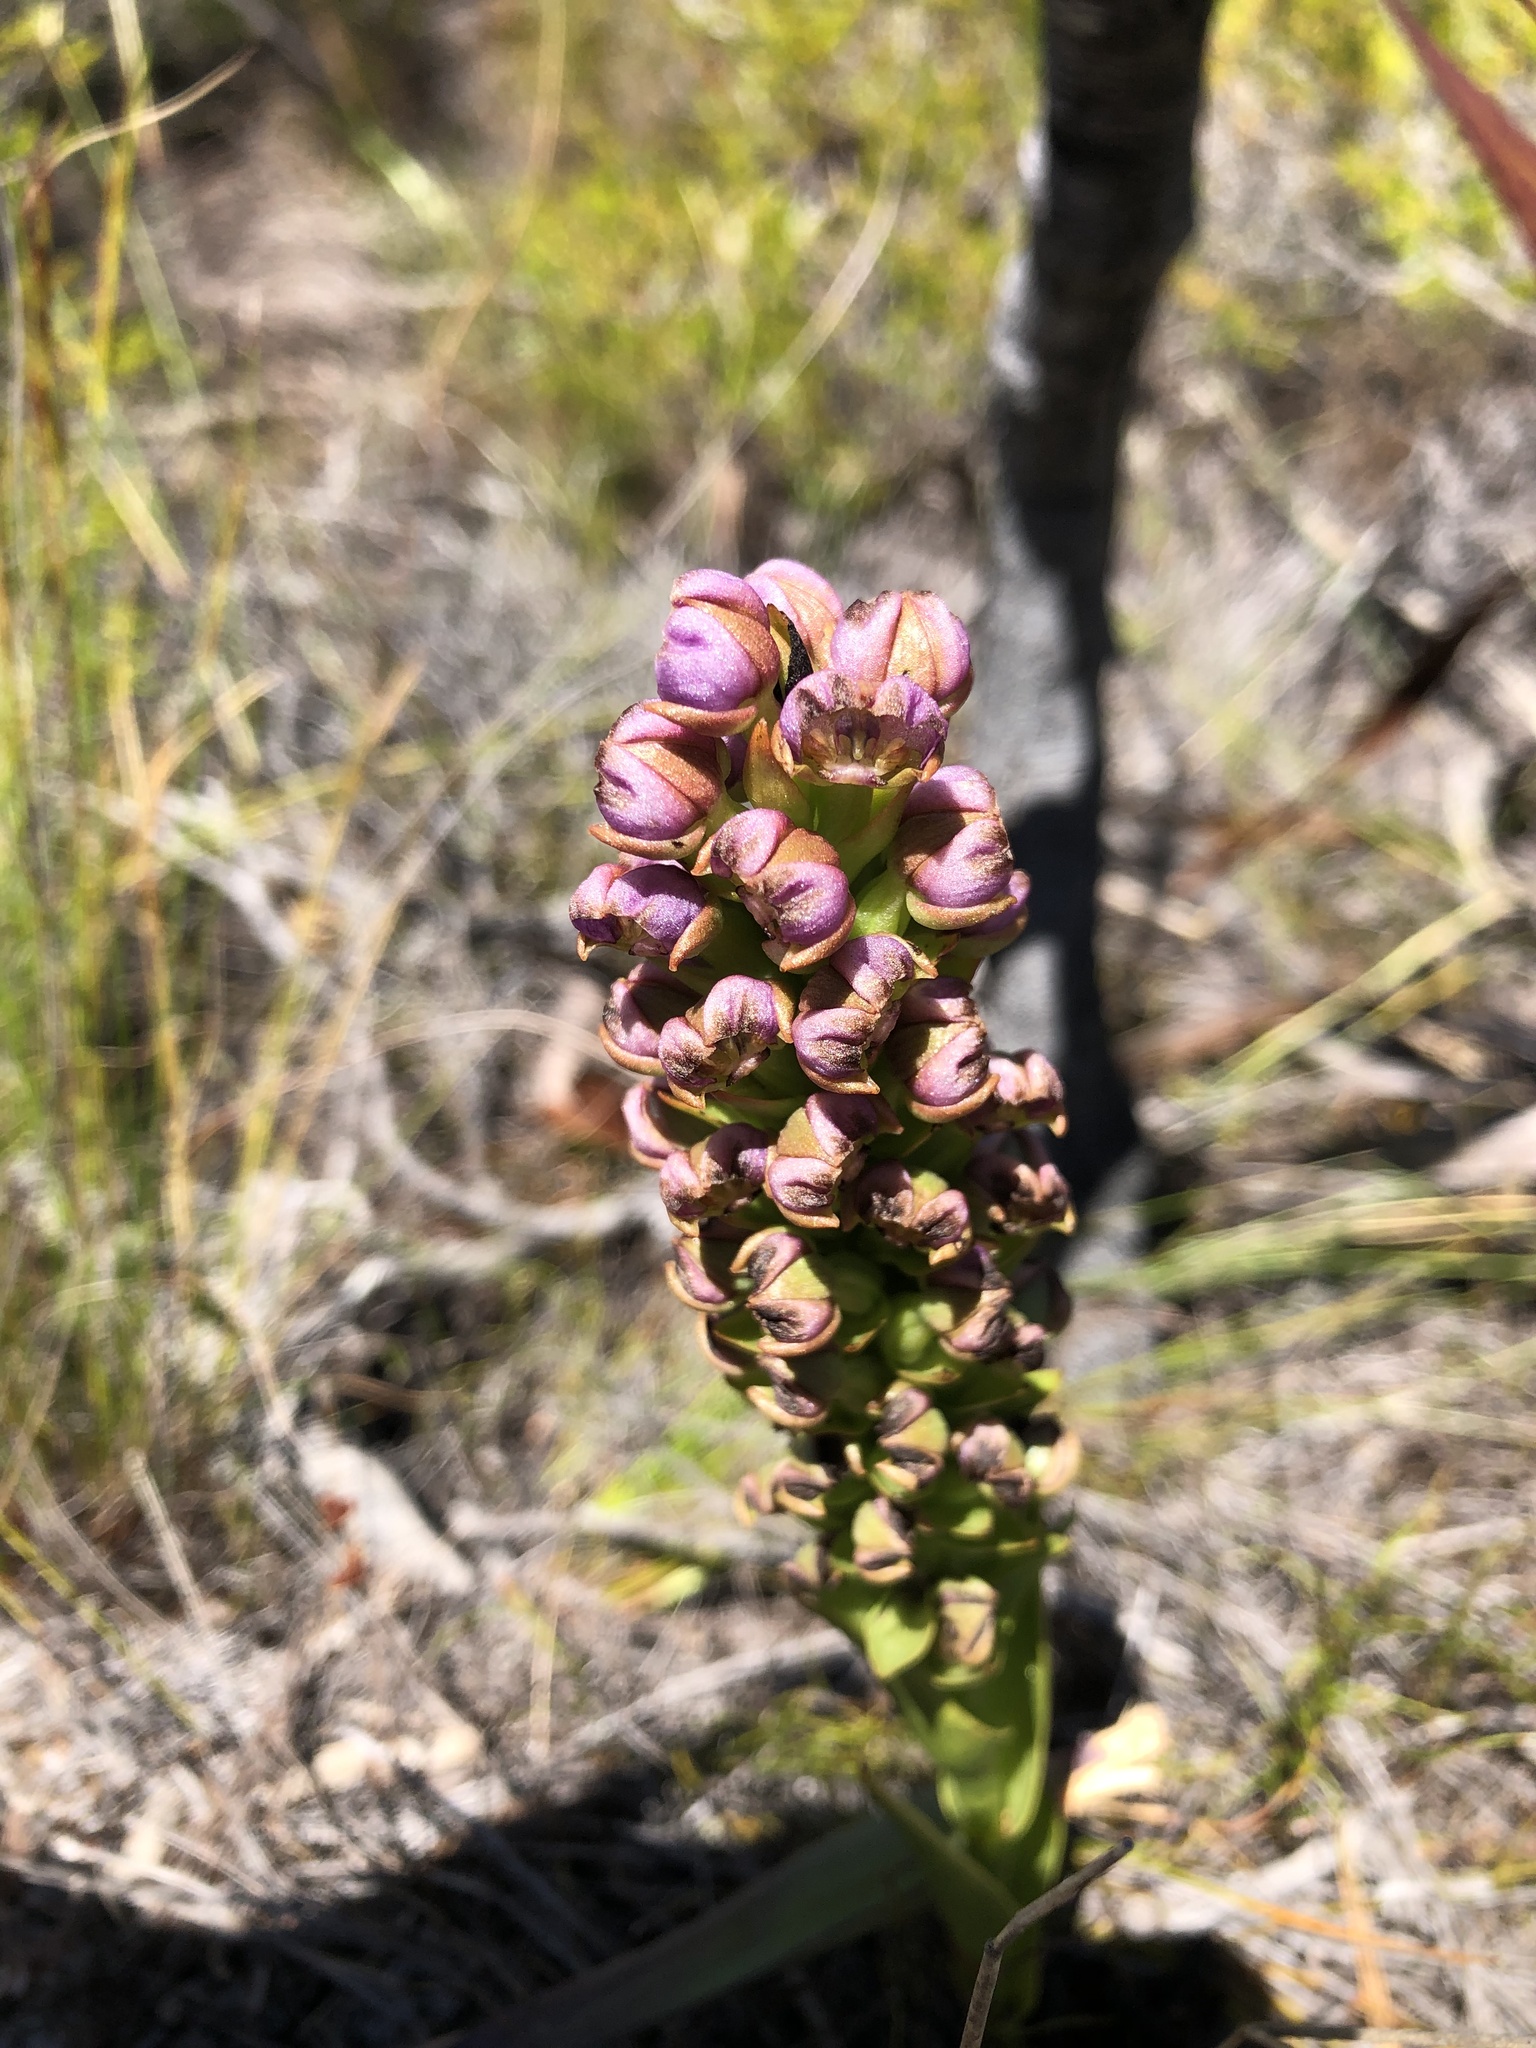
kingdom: Plantae
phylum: Tracheophyta
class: Liliopsida
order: Asparagales
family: Orchidaceae
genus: Evotella
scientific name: Evotella carnosa
